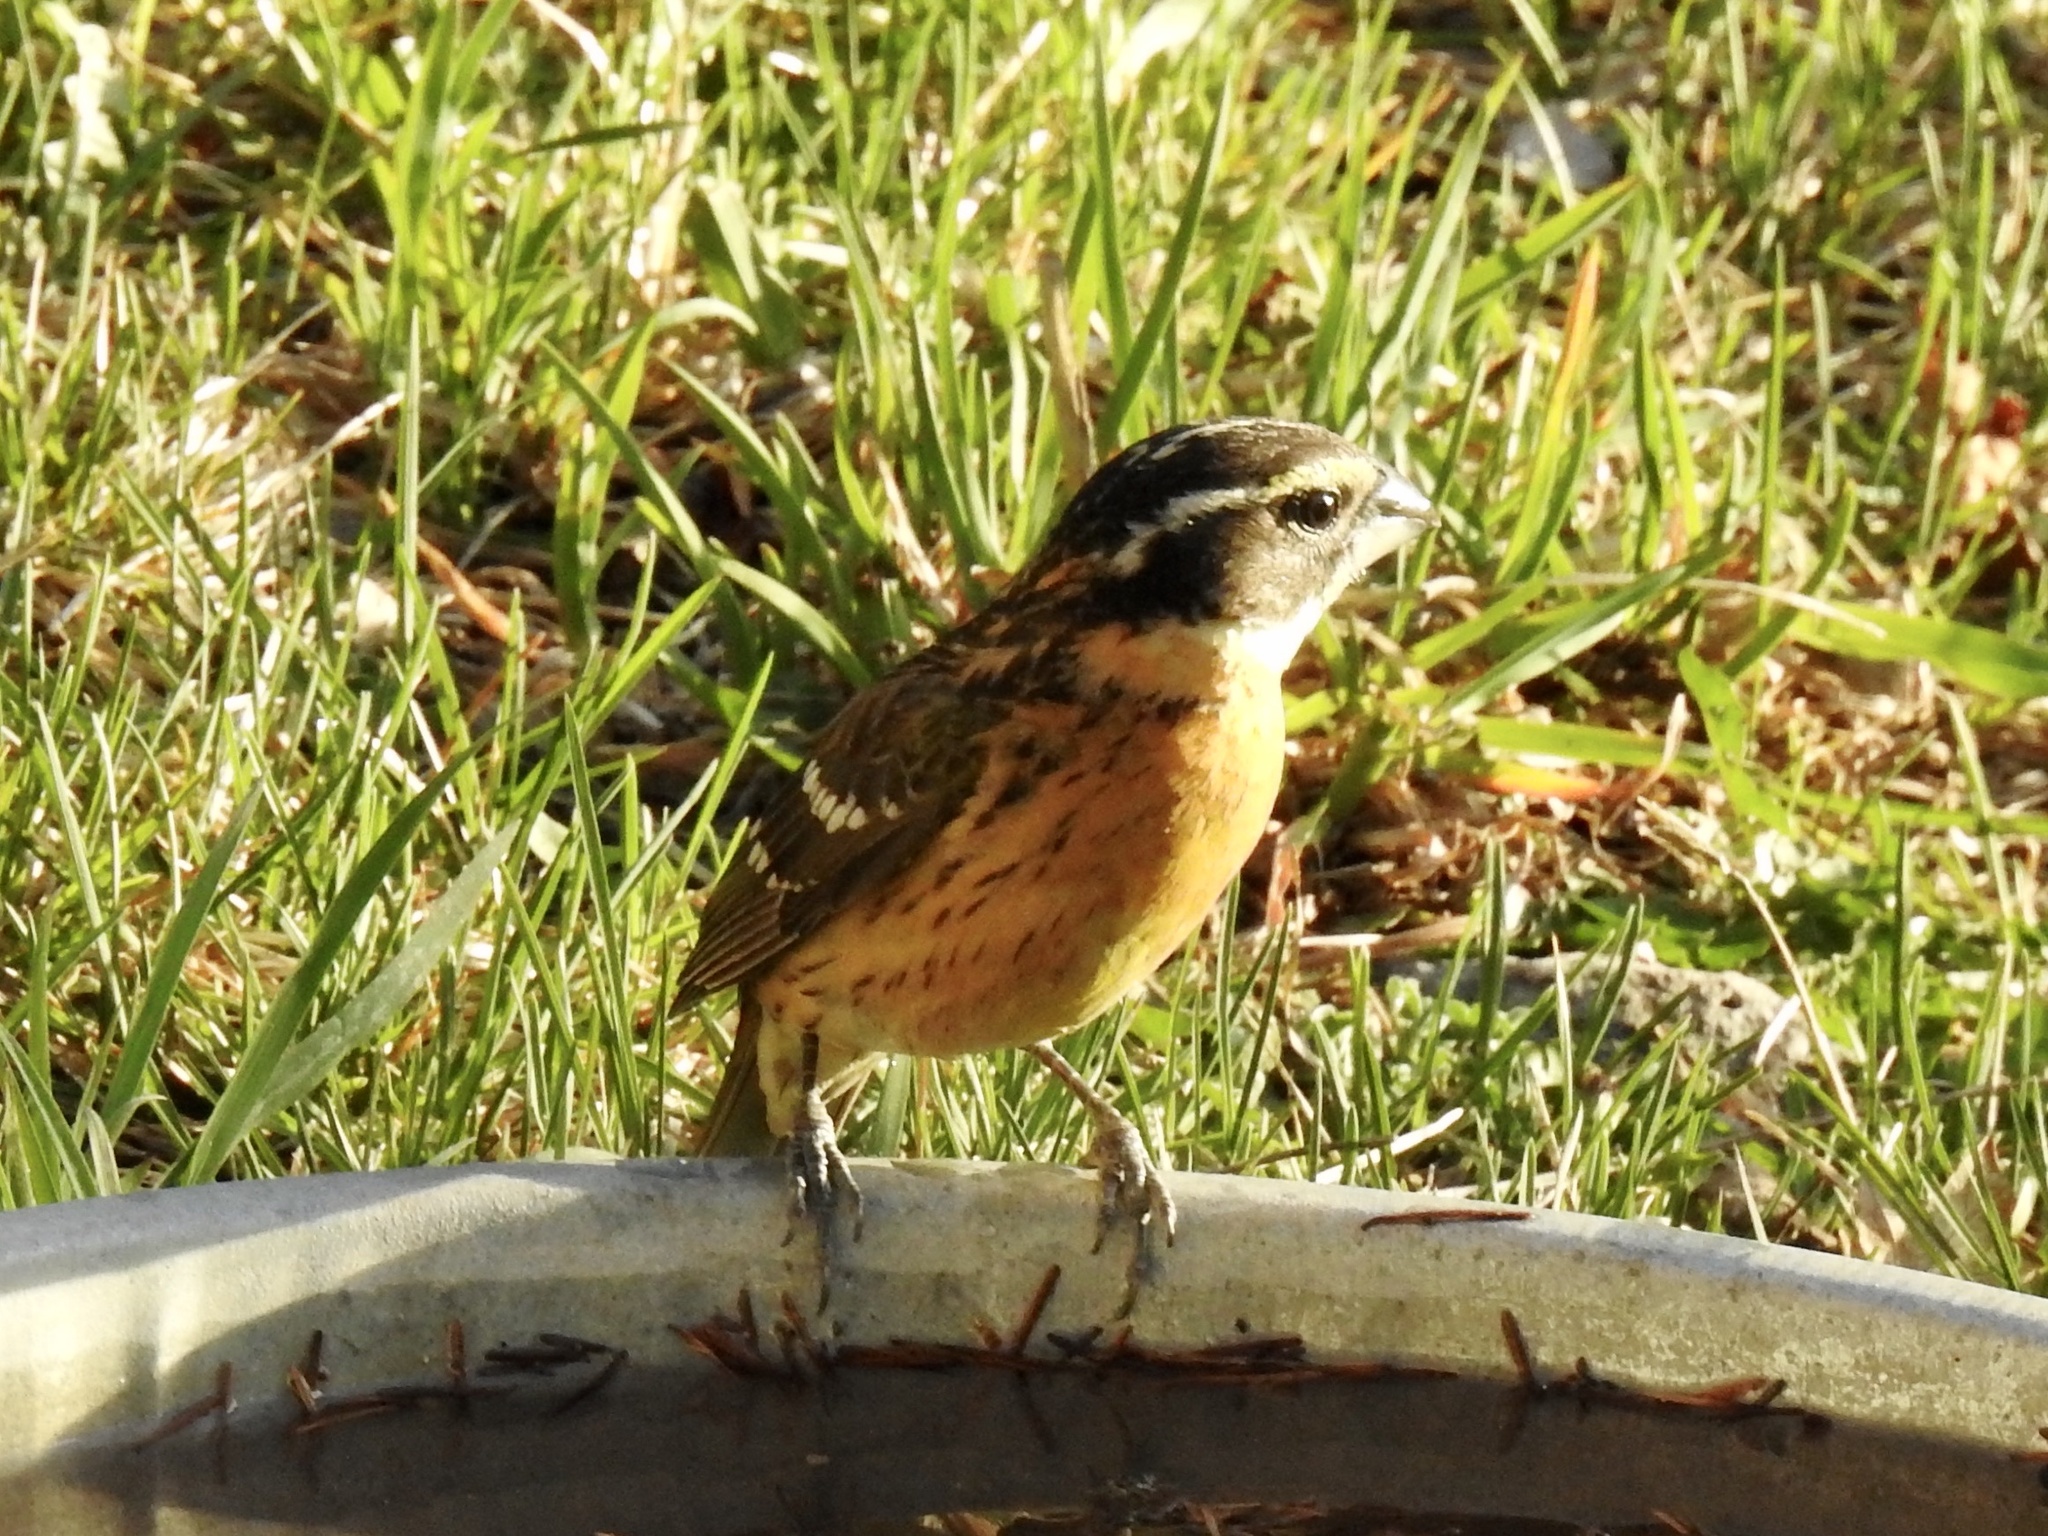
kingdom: Animalia
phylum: Chordata
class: Aves
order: Passeriformes
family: Cardinalidae
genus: Pheucticus
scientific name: Pheucticus melanocephalus
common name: Black-headed grosbeak
